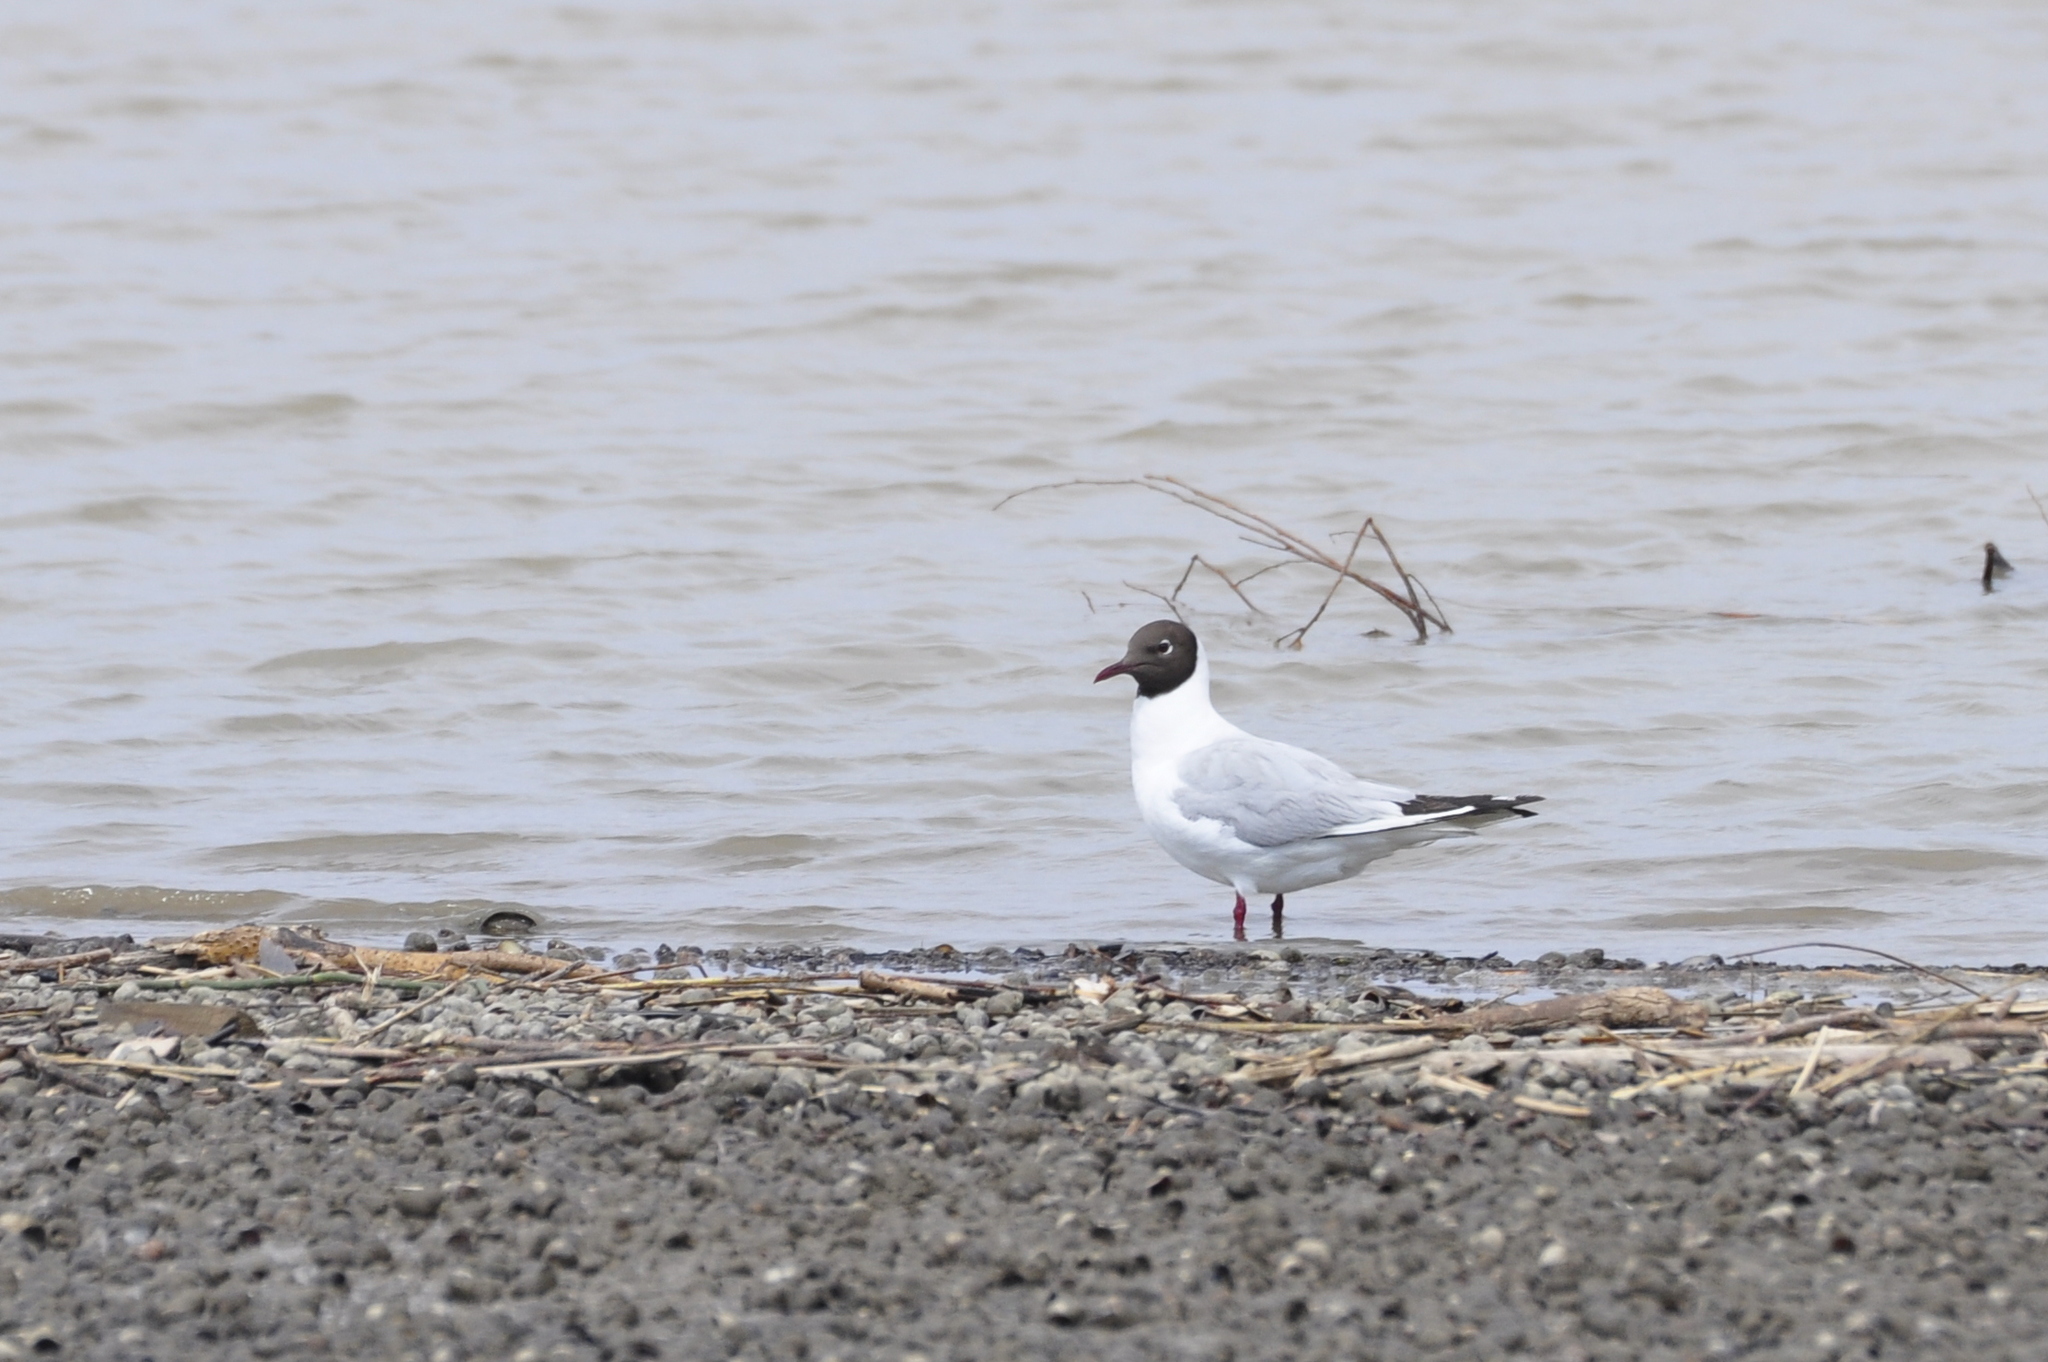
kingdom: Animalia
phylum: Chordata
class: Aves
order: Charadriiformes
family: Laridae
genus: Chroicocephalus
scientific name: Chroicocephalus ridibundus
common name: Black-headed gull
